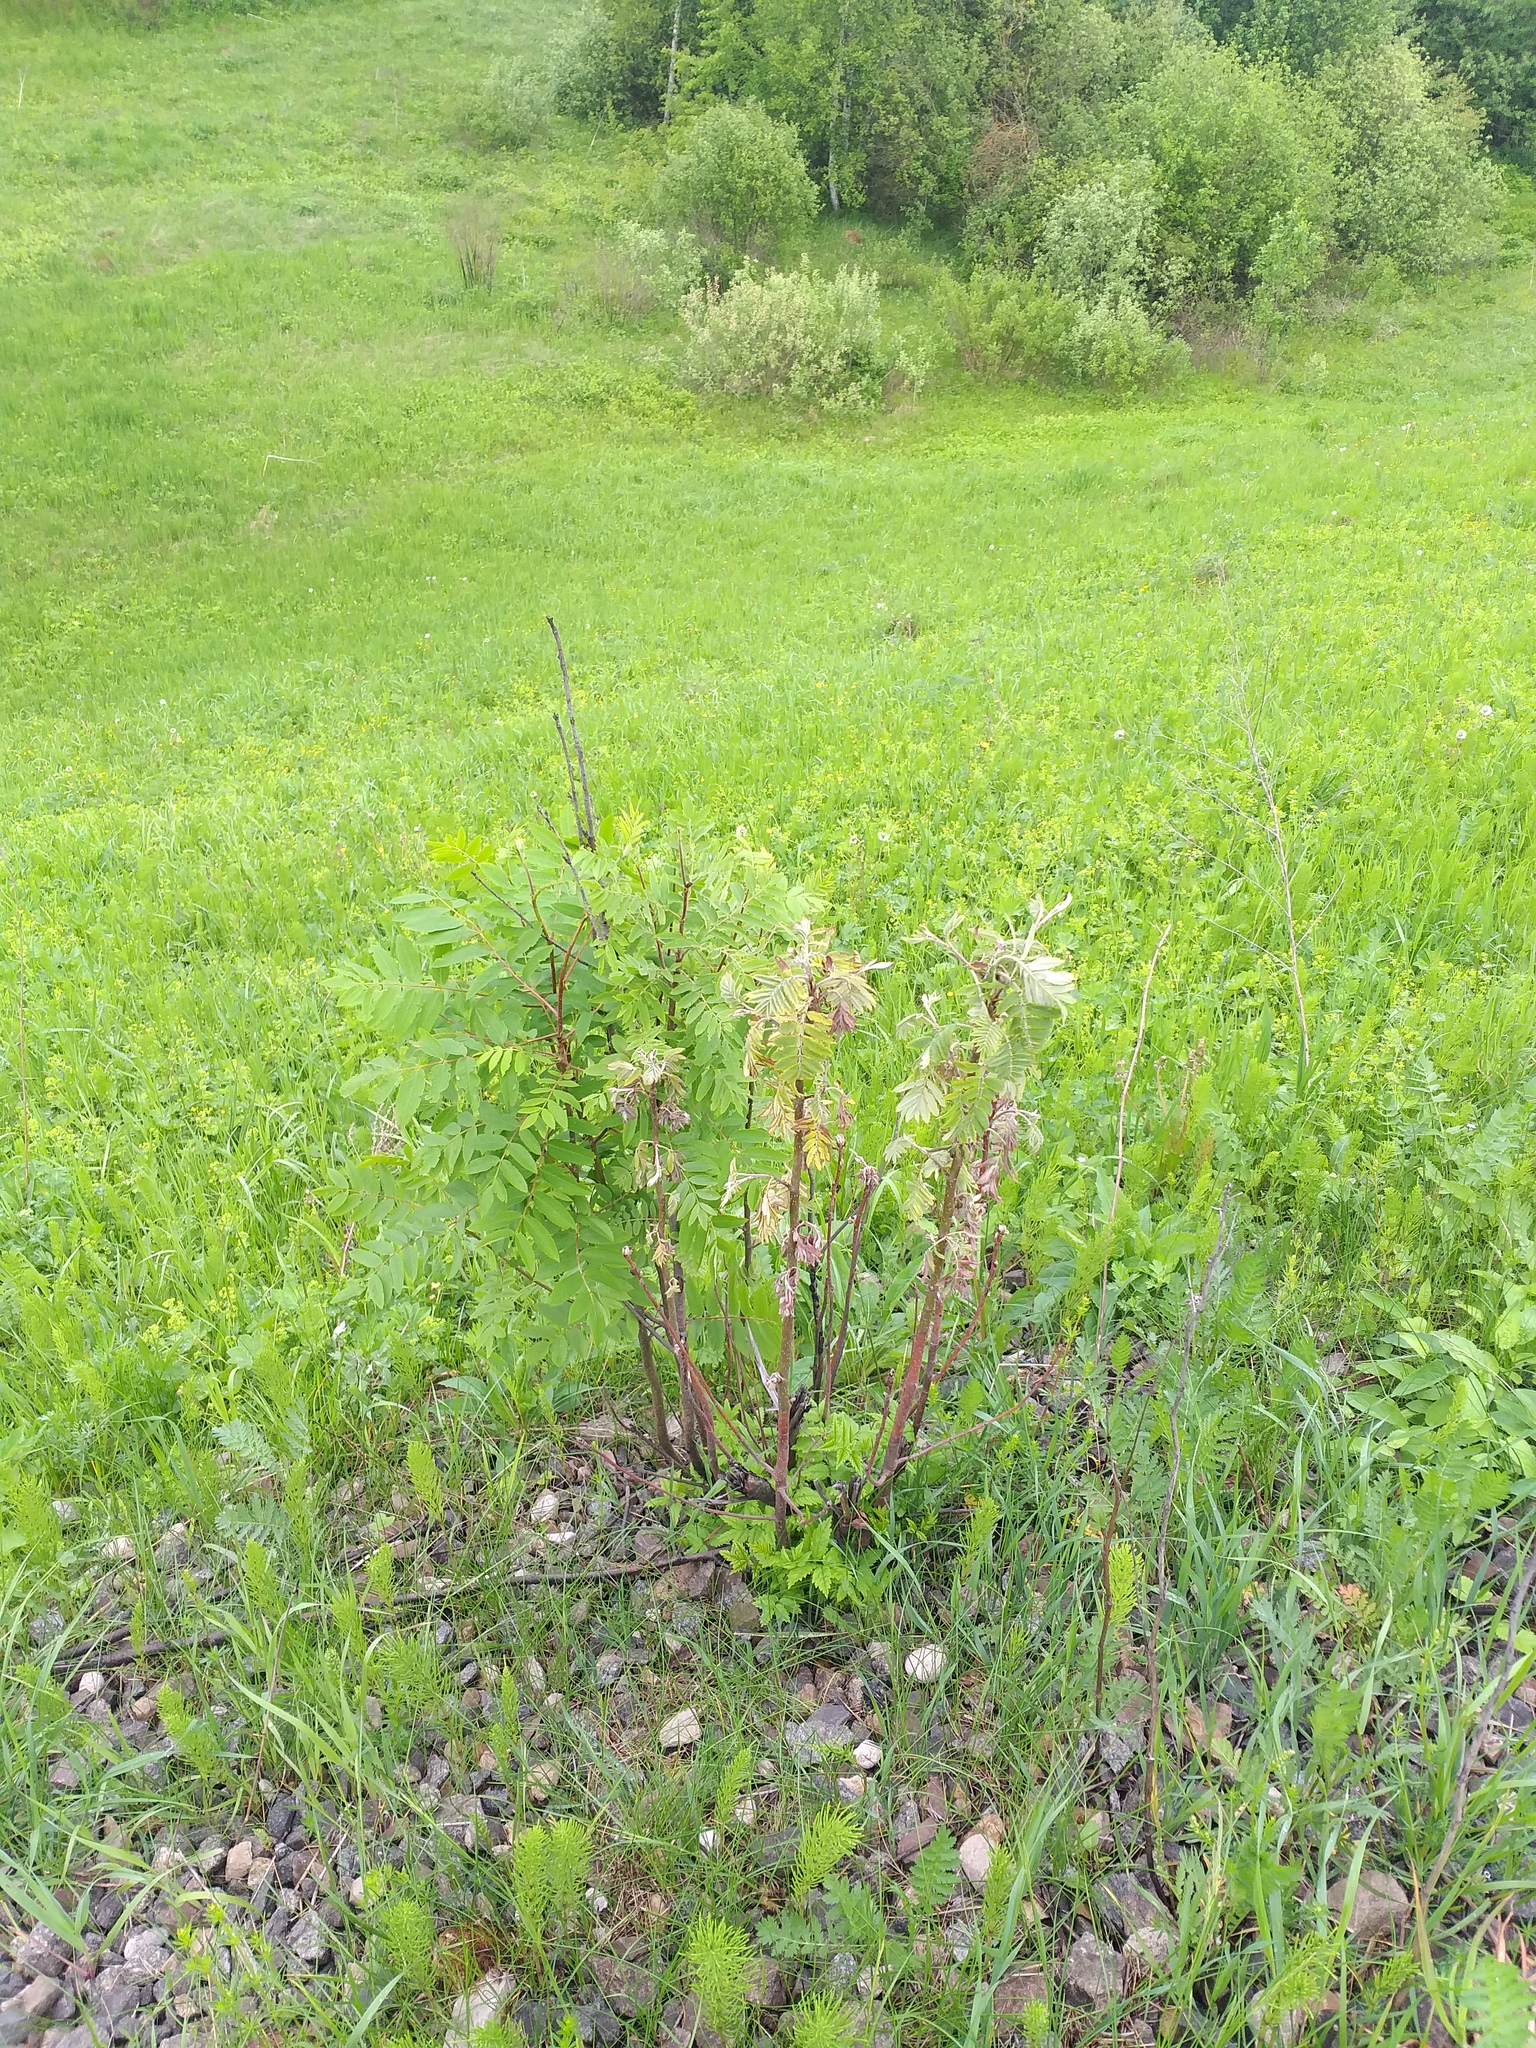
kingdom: Plantae
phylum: Tracheophyta
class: Magnoliopsida
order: Rosales
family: Rosaceae
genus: Sorbus
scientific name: Sorbus aucuparia
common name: Rowan
